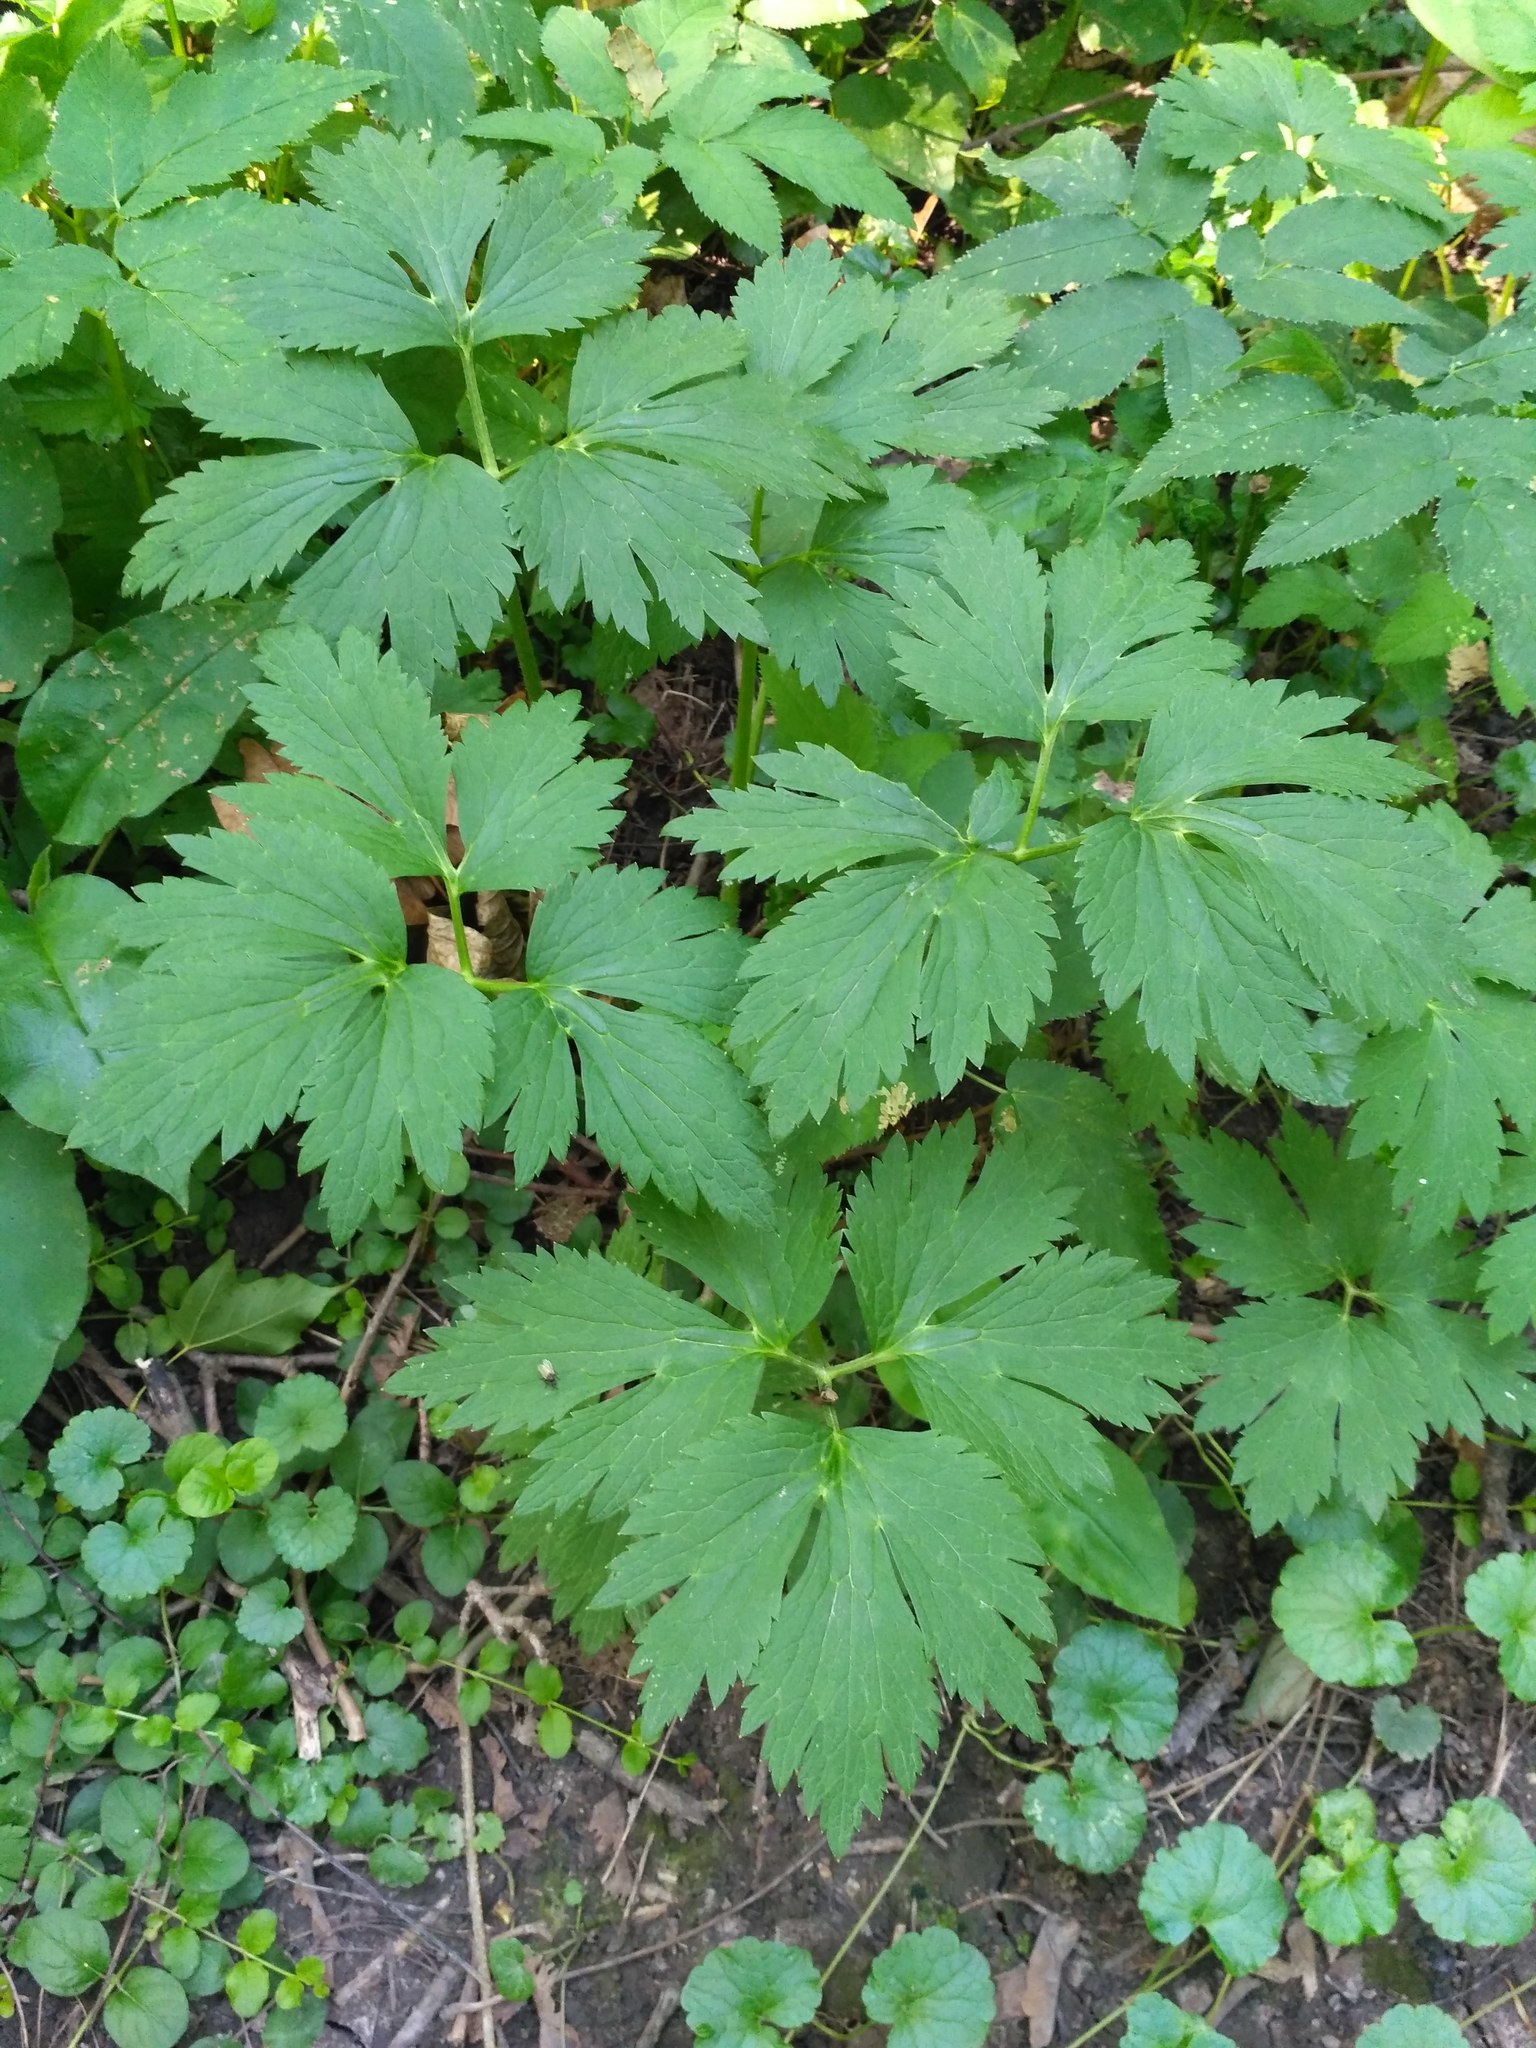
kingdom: Plantae
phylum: Tracheophyta
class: Magnoliopsida
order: Ranunculales
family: Ranunculaceae
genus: Ranunculus
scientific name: Ranunculus repens
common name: Creeping buttercup
